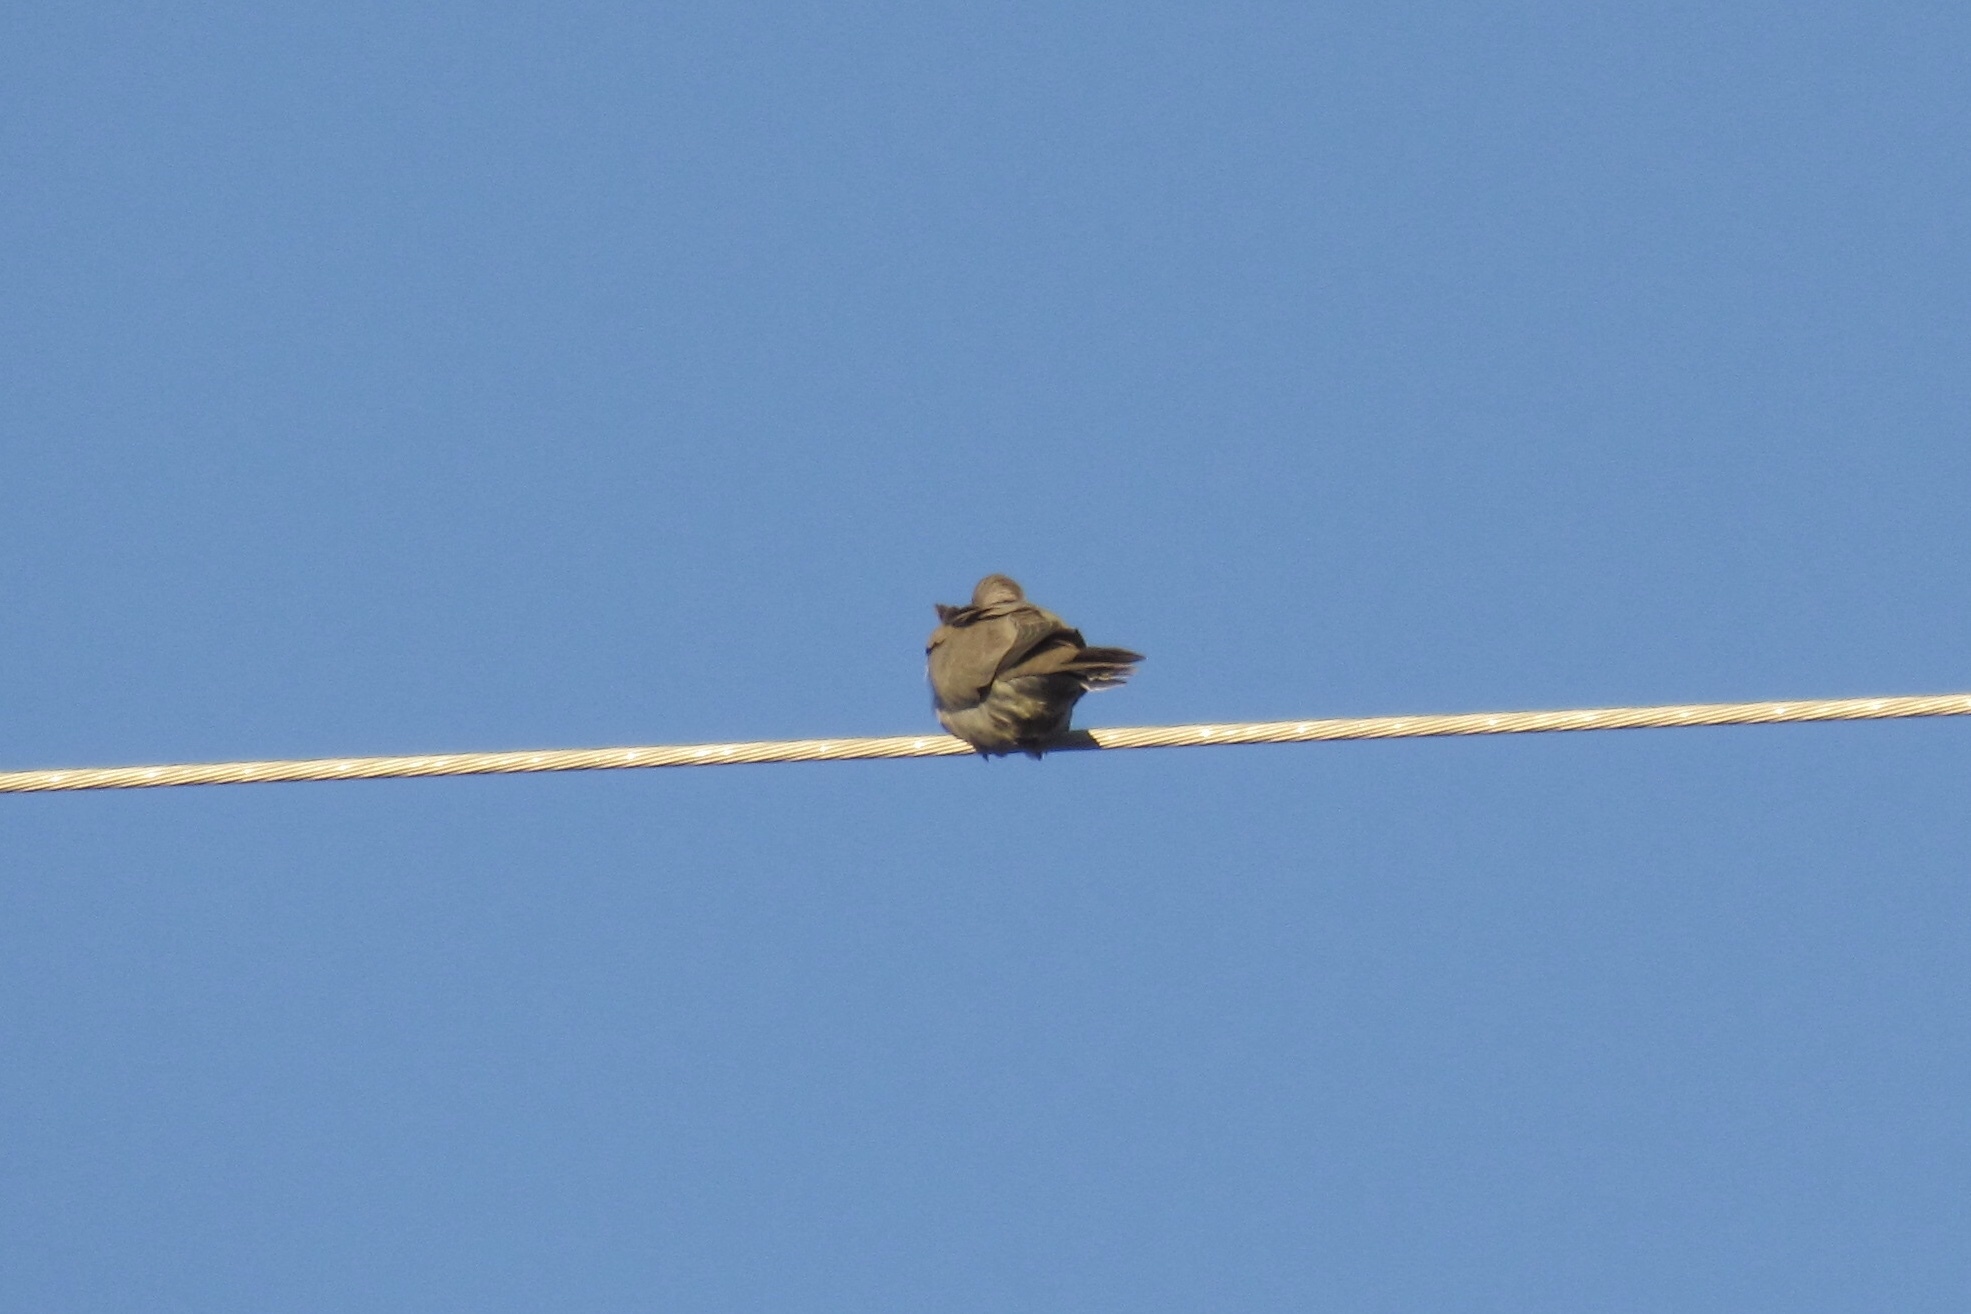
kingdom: Animalia
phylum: Chordata
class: Aves
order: Columbiformes
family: Columbidae
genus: Streptopelia
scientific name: Streptopelia decaocto
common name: Eurasian collared dove
